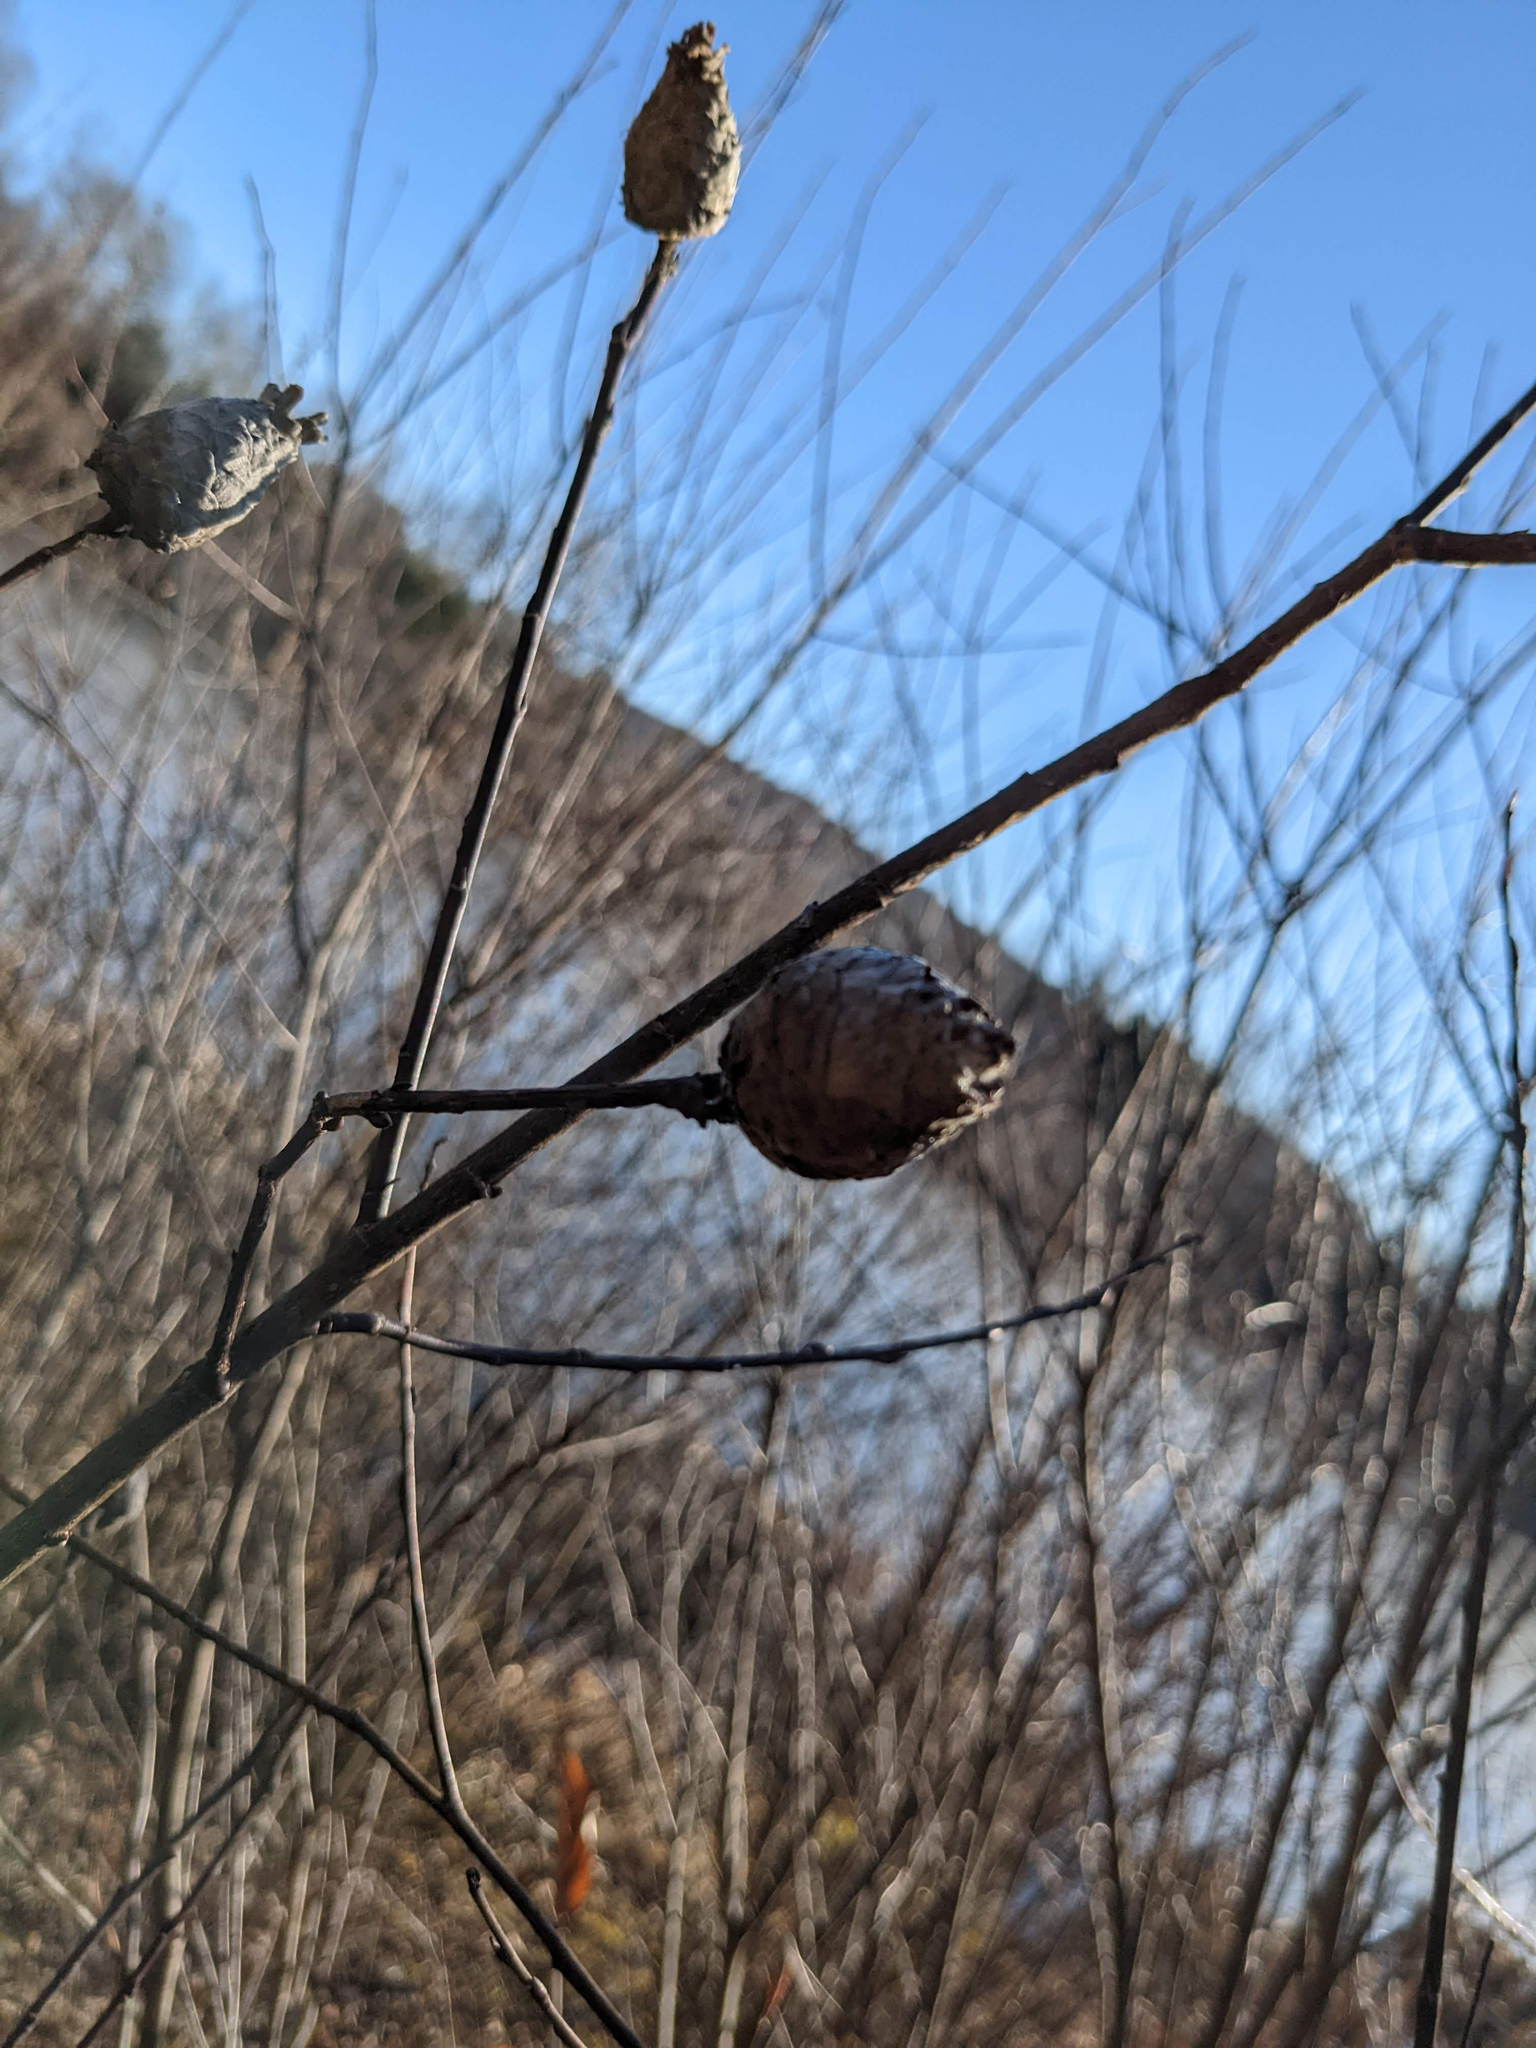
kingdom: Animalia
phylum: Arthropoda
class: Insecta
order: Diptera
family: Cecidomyiidae
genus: Rabdophaga
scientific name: Rabdophaga strobiloides
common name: Willow pinecone gall midge
